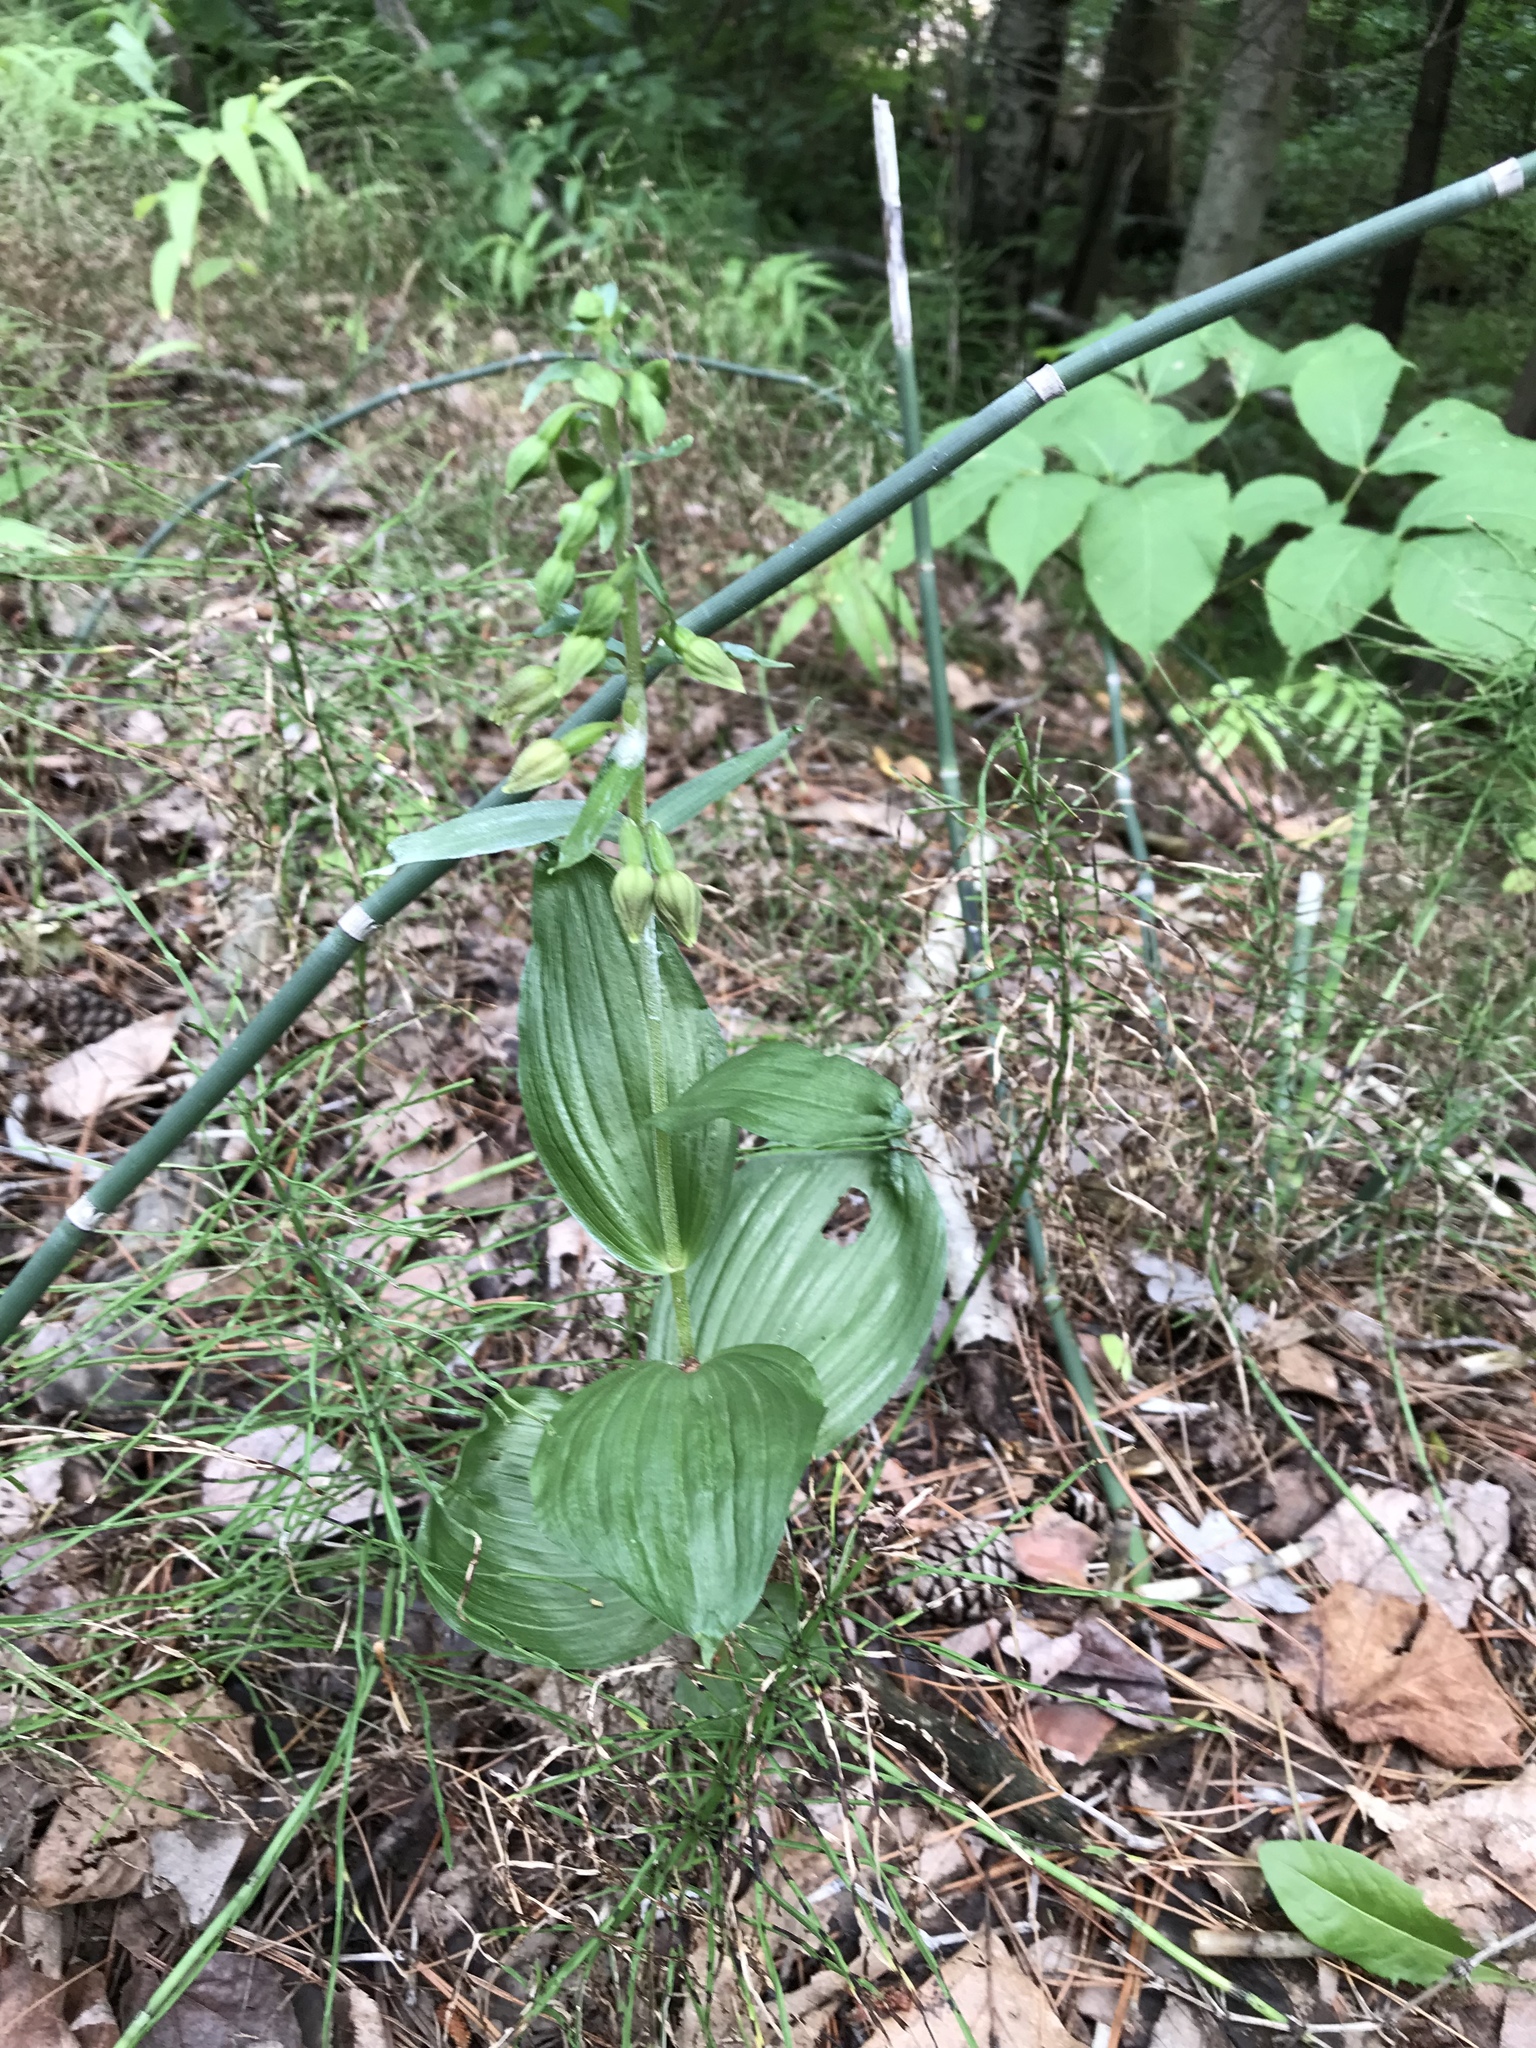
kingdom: Plantae
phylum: Tracheophyta
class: Liliopsida
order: Asparagales
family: Orchidaceae
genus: Epipactis
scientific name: Epipactis helleborine
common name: Broad-leaved helleborine
